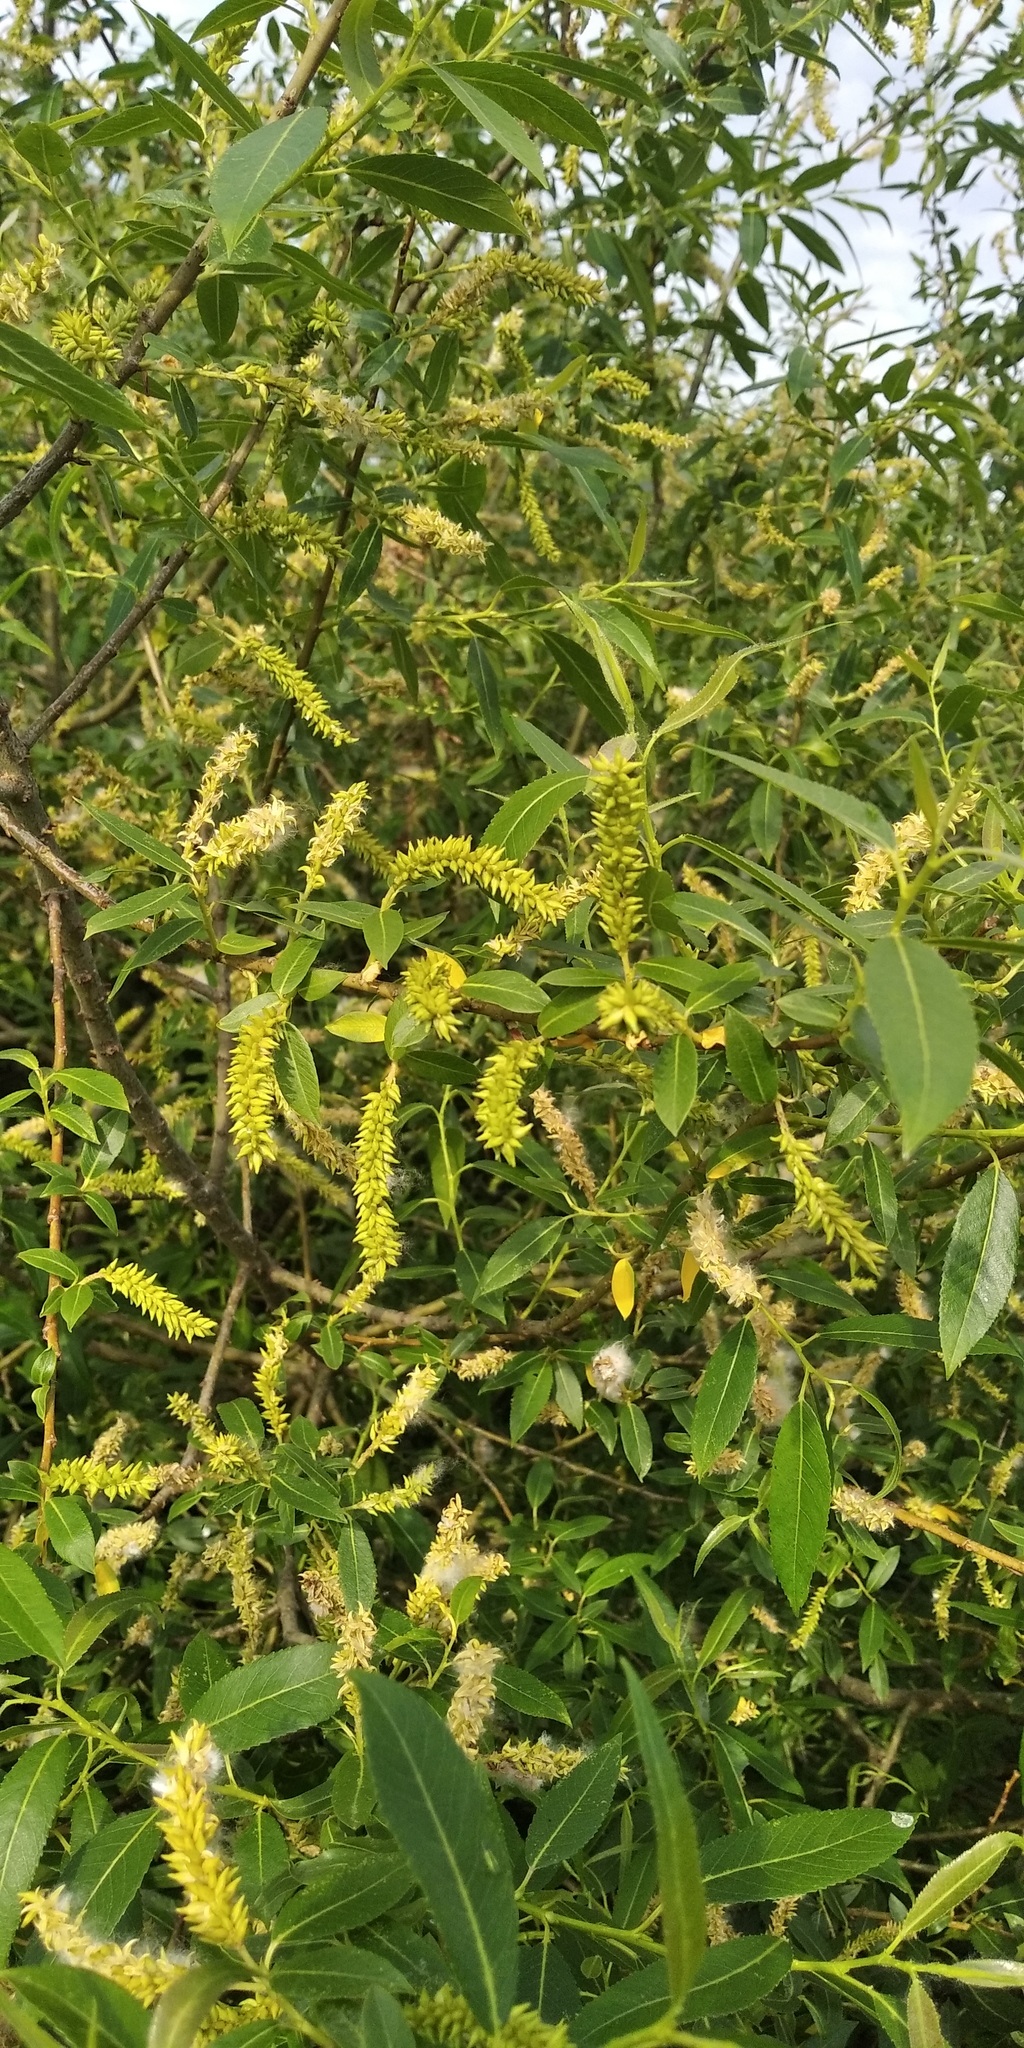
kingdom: Plantae
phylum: Tracheophyta
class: Magnoliopsida
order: Malpighiales
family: Salicaceae
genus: Salix
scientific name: Salix triandra
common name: Almond willow
